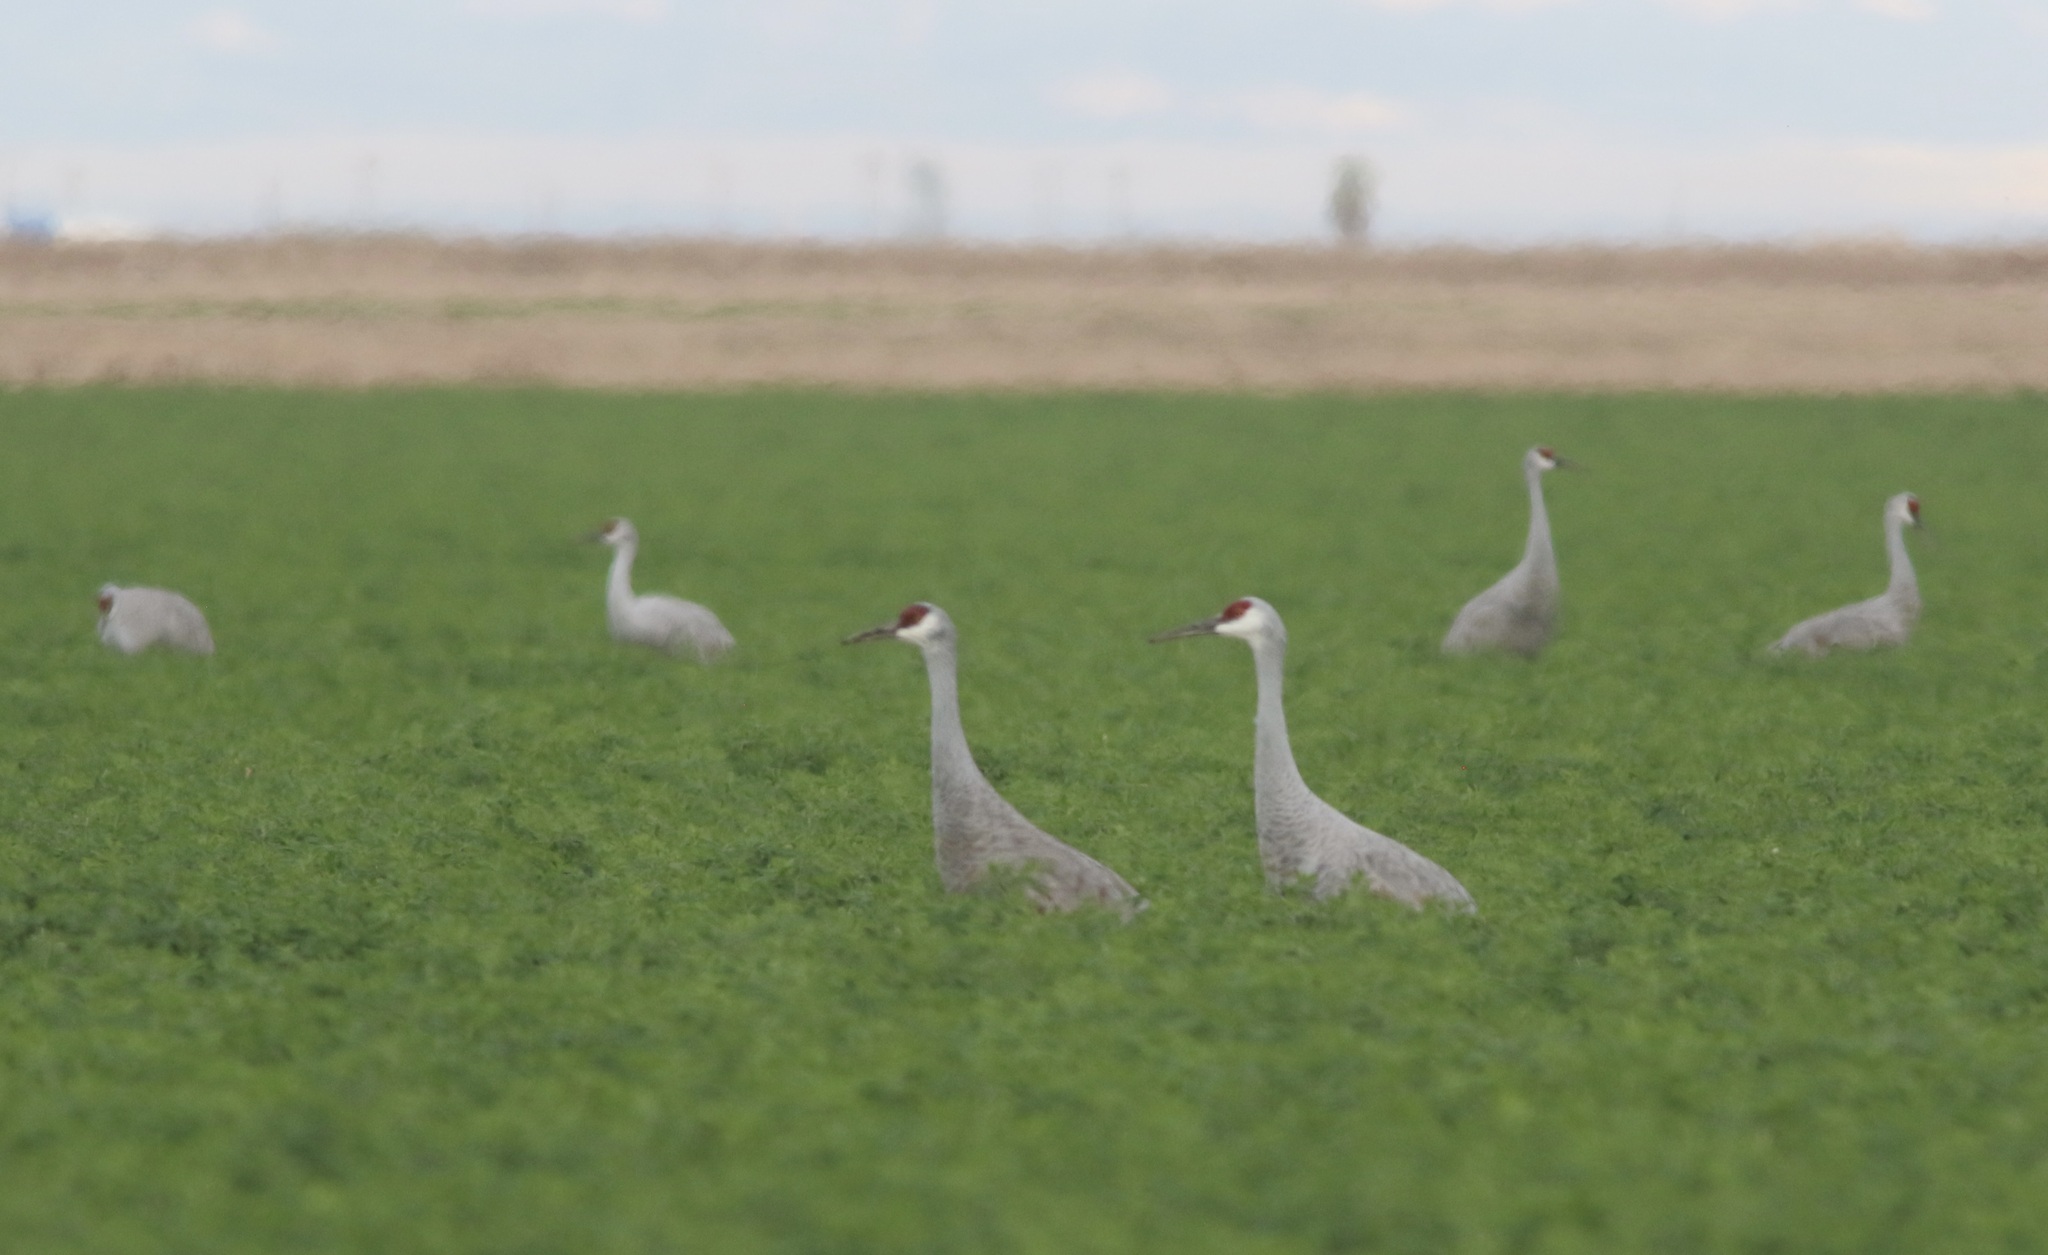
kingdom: Animalia
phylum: Chordata
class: Aves
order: Gruiformes
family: Gruidae
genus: Grus
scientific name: Grus canadensis
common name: Sandhill crane
